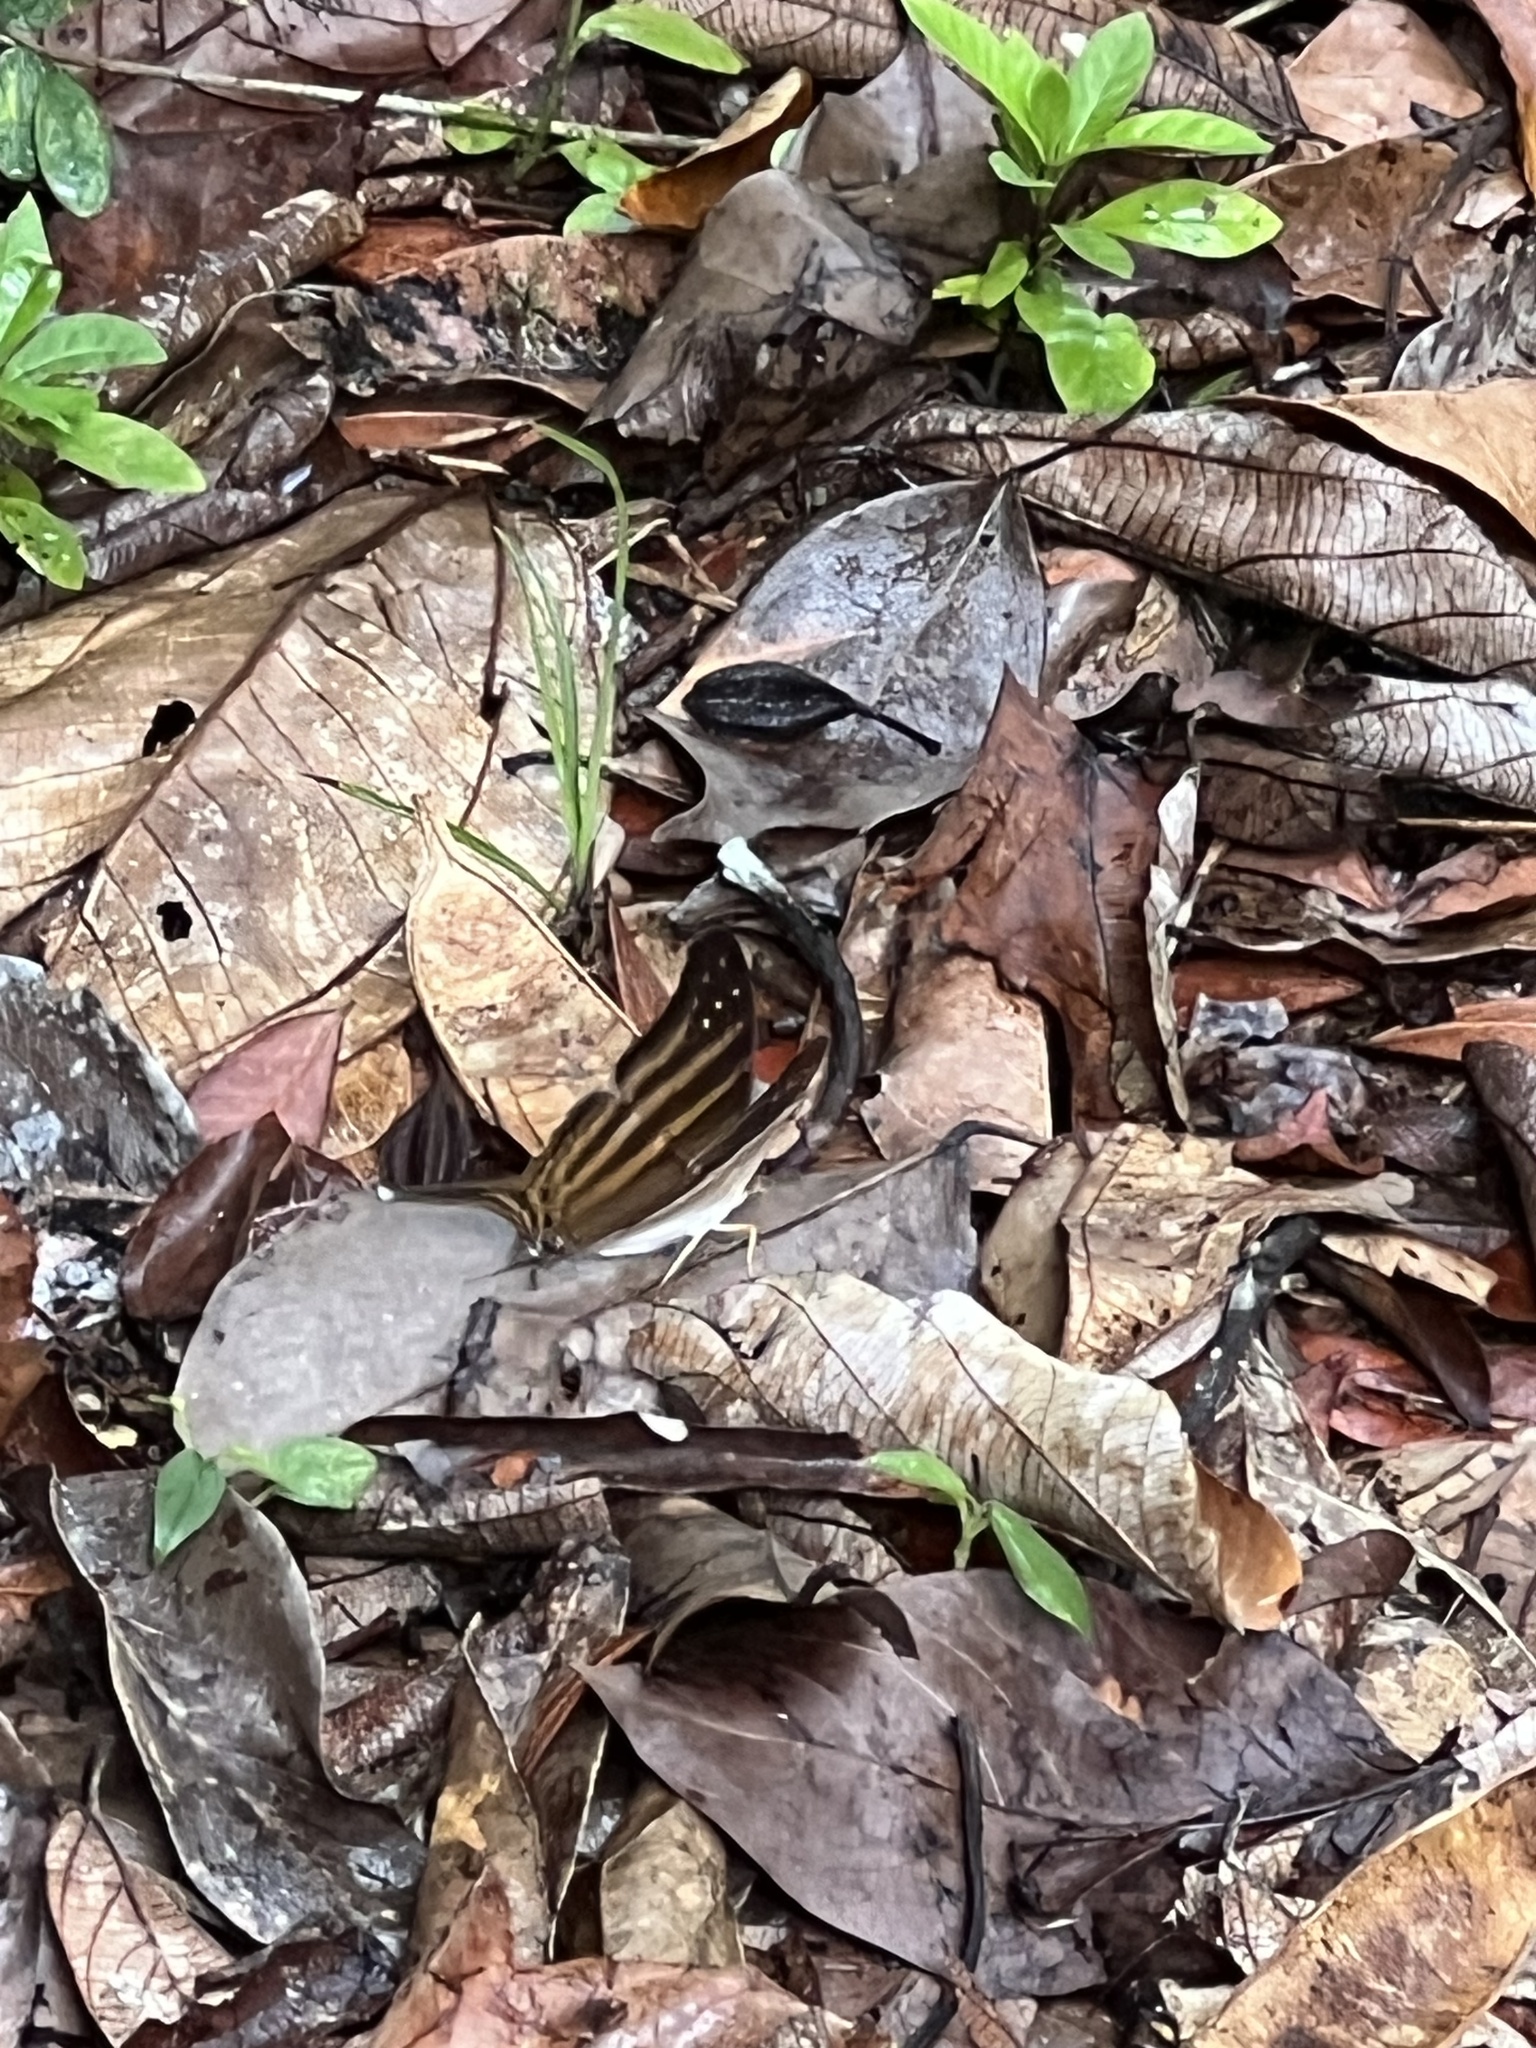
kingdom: Animalia
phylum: Arthropoda
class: Insecta
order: Lepidoptera
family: Nymphalidae
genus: Marpesia
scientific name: Marpesia chiron
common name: Many-banded daggerwing
